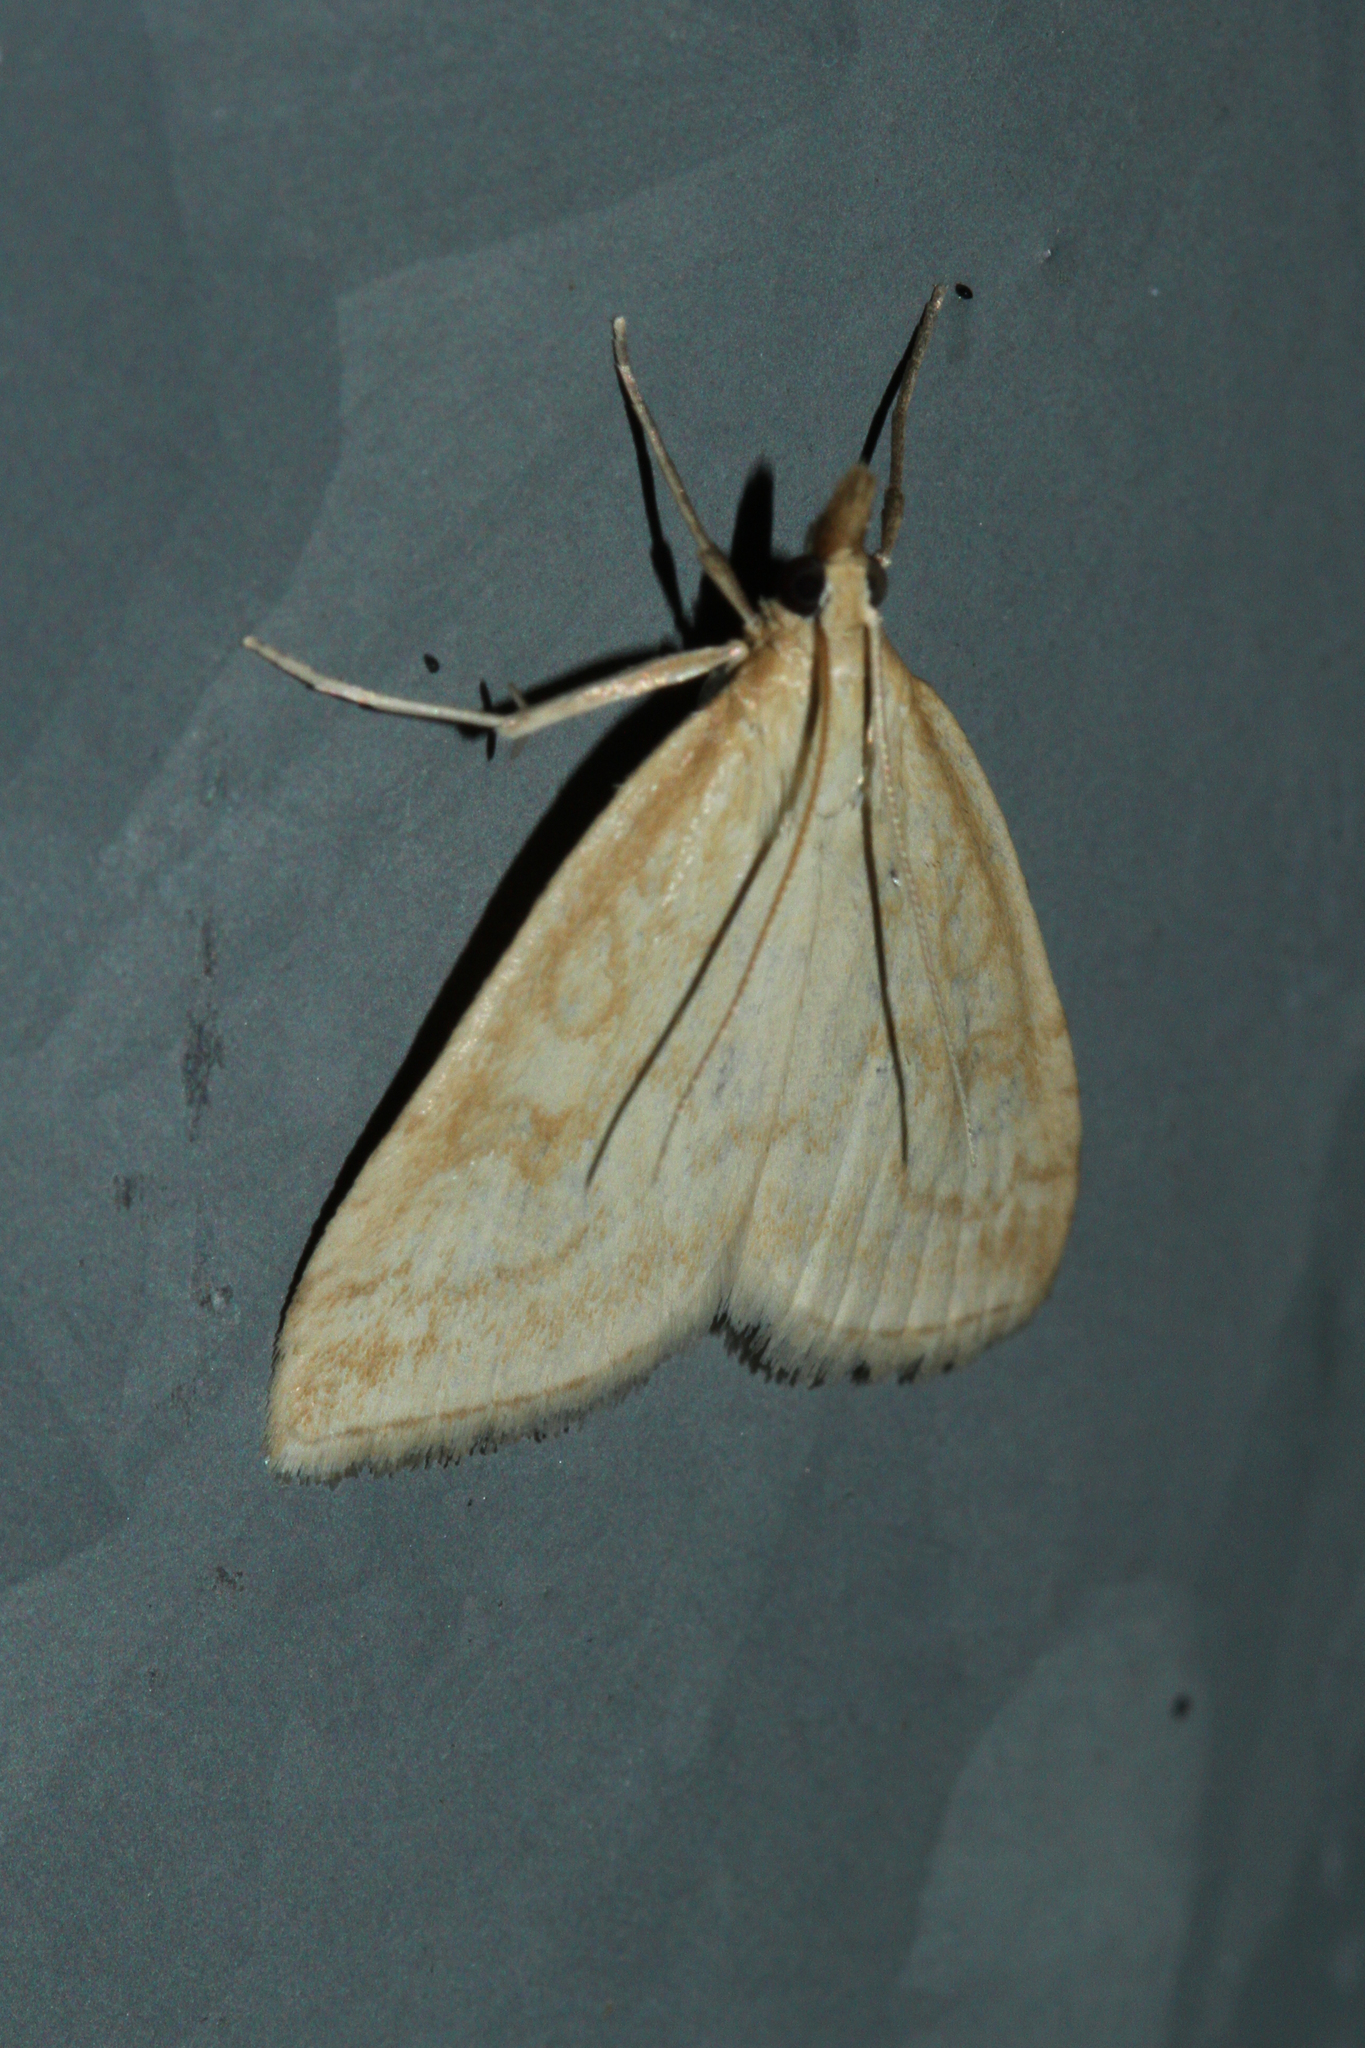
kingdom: Animalia
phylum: Arthropoda
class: Insecta
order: Lepidoptera
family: Crambidae
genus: Udea
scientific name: Udea lutealis
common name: Pale straw pearl
